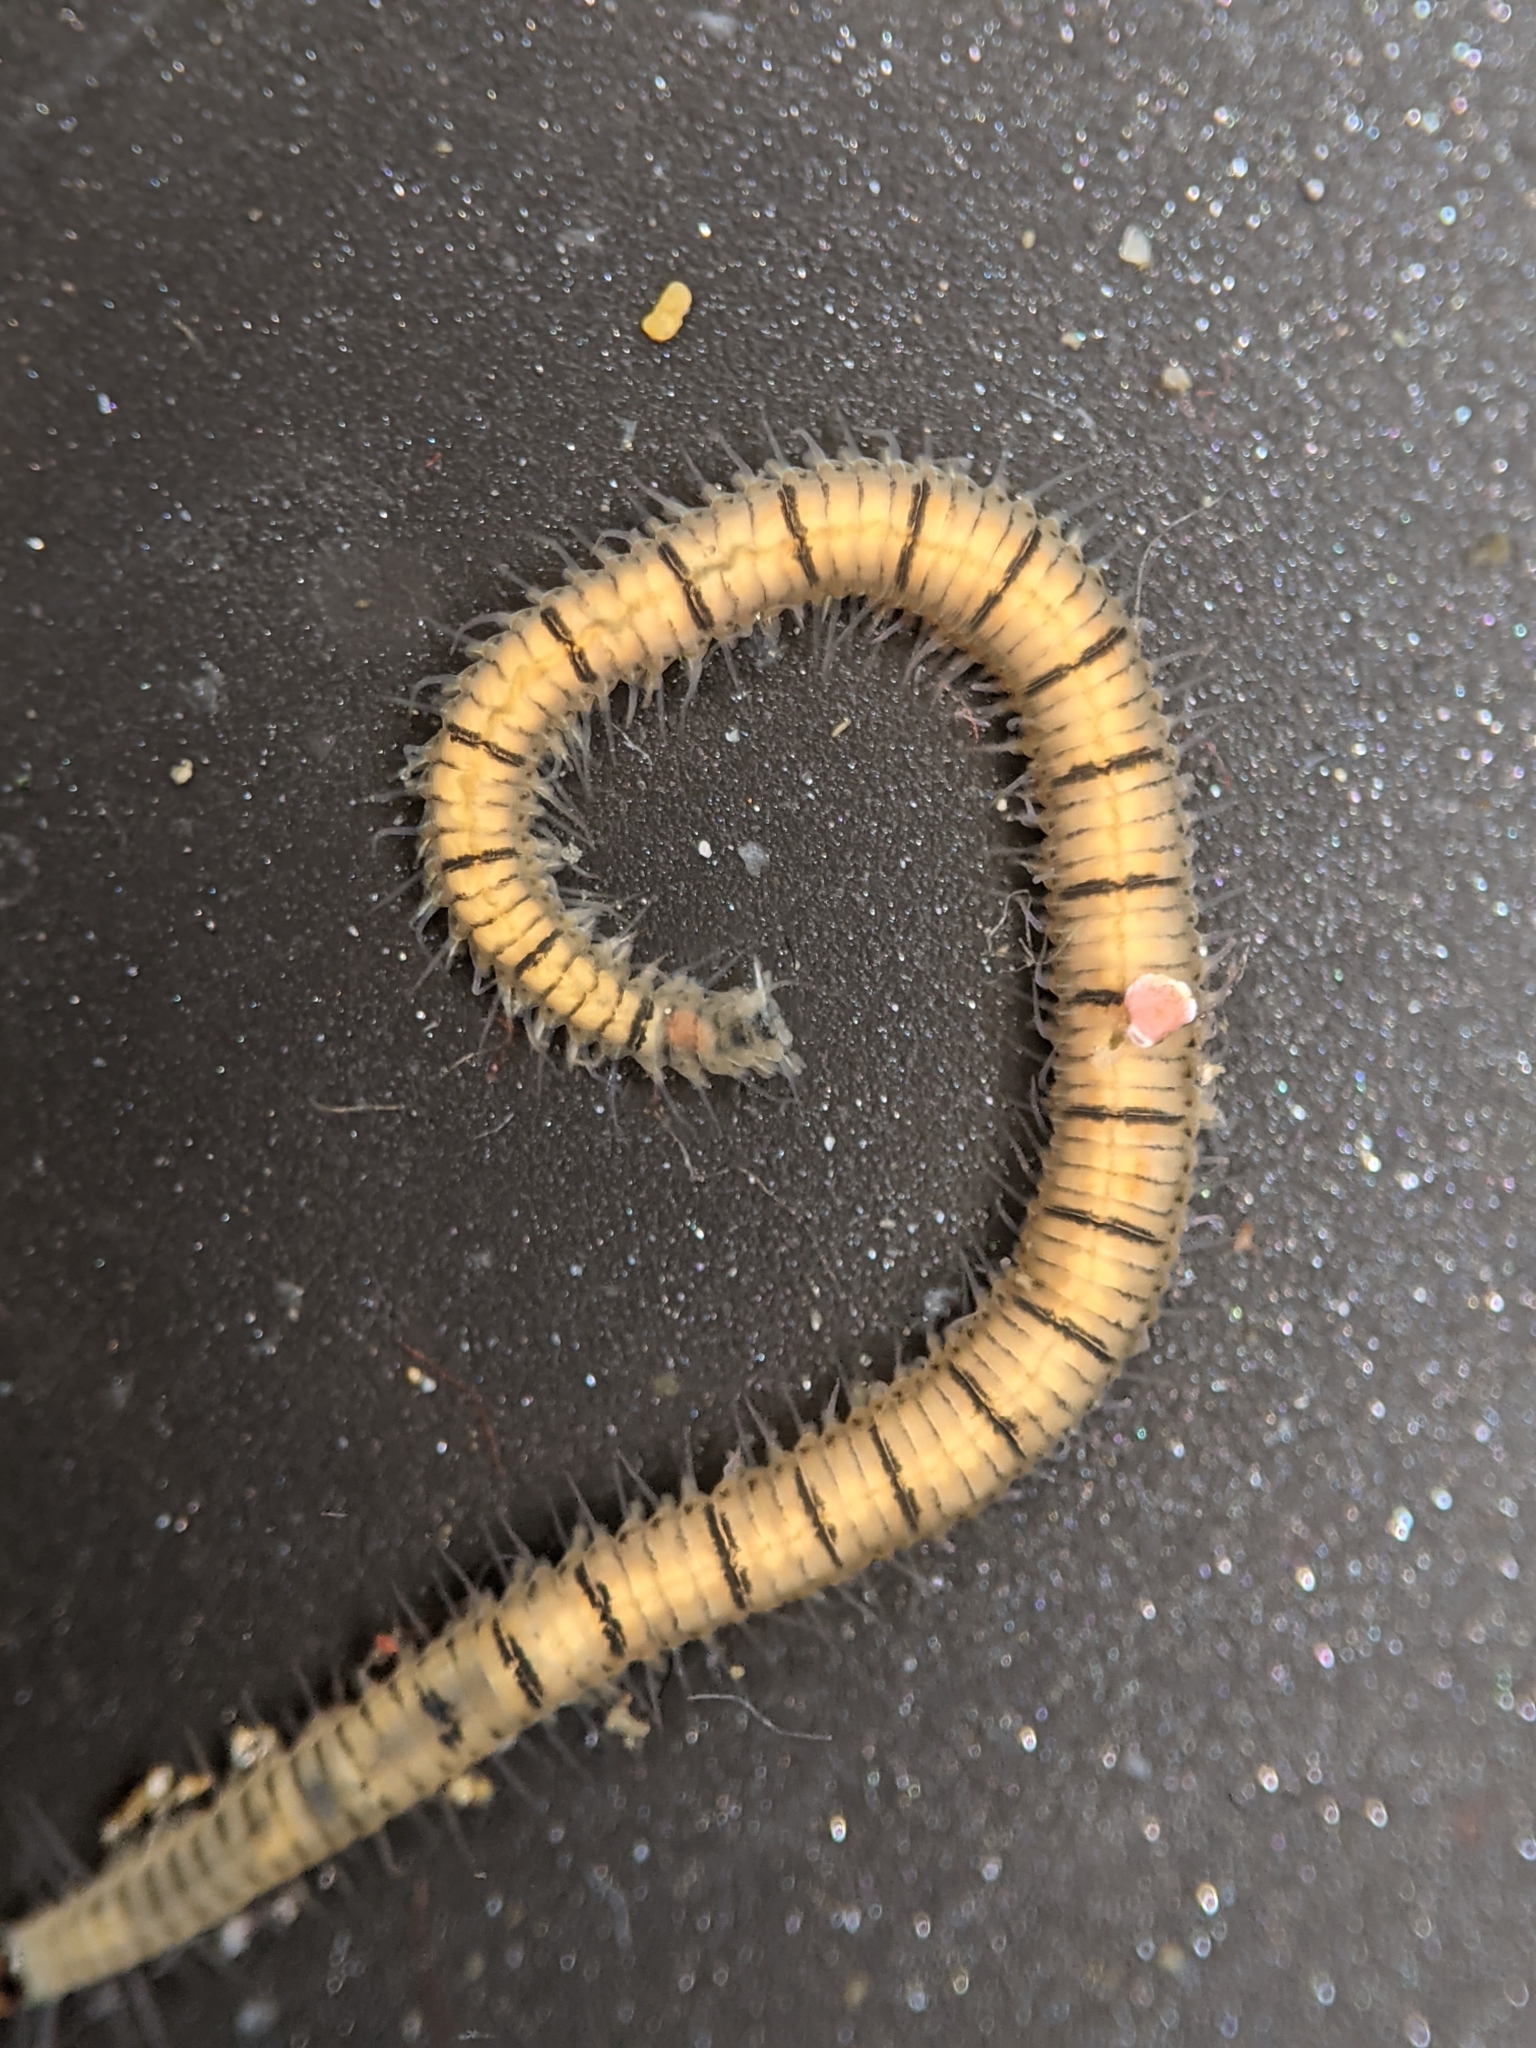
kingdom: Animalia
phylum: Annelida
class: Polychaeta
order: Phyllodocida
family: Syllidae
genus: Odontosyllis
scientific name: Odontosyllis phosphorea
